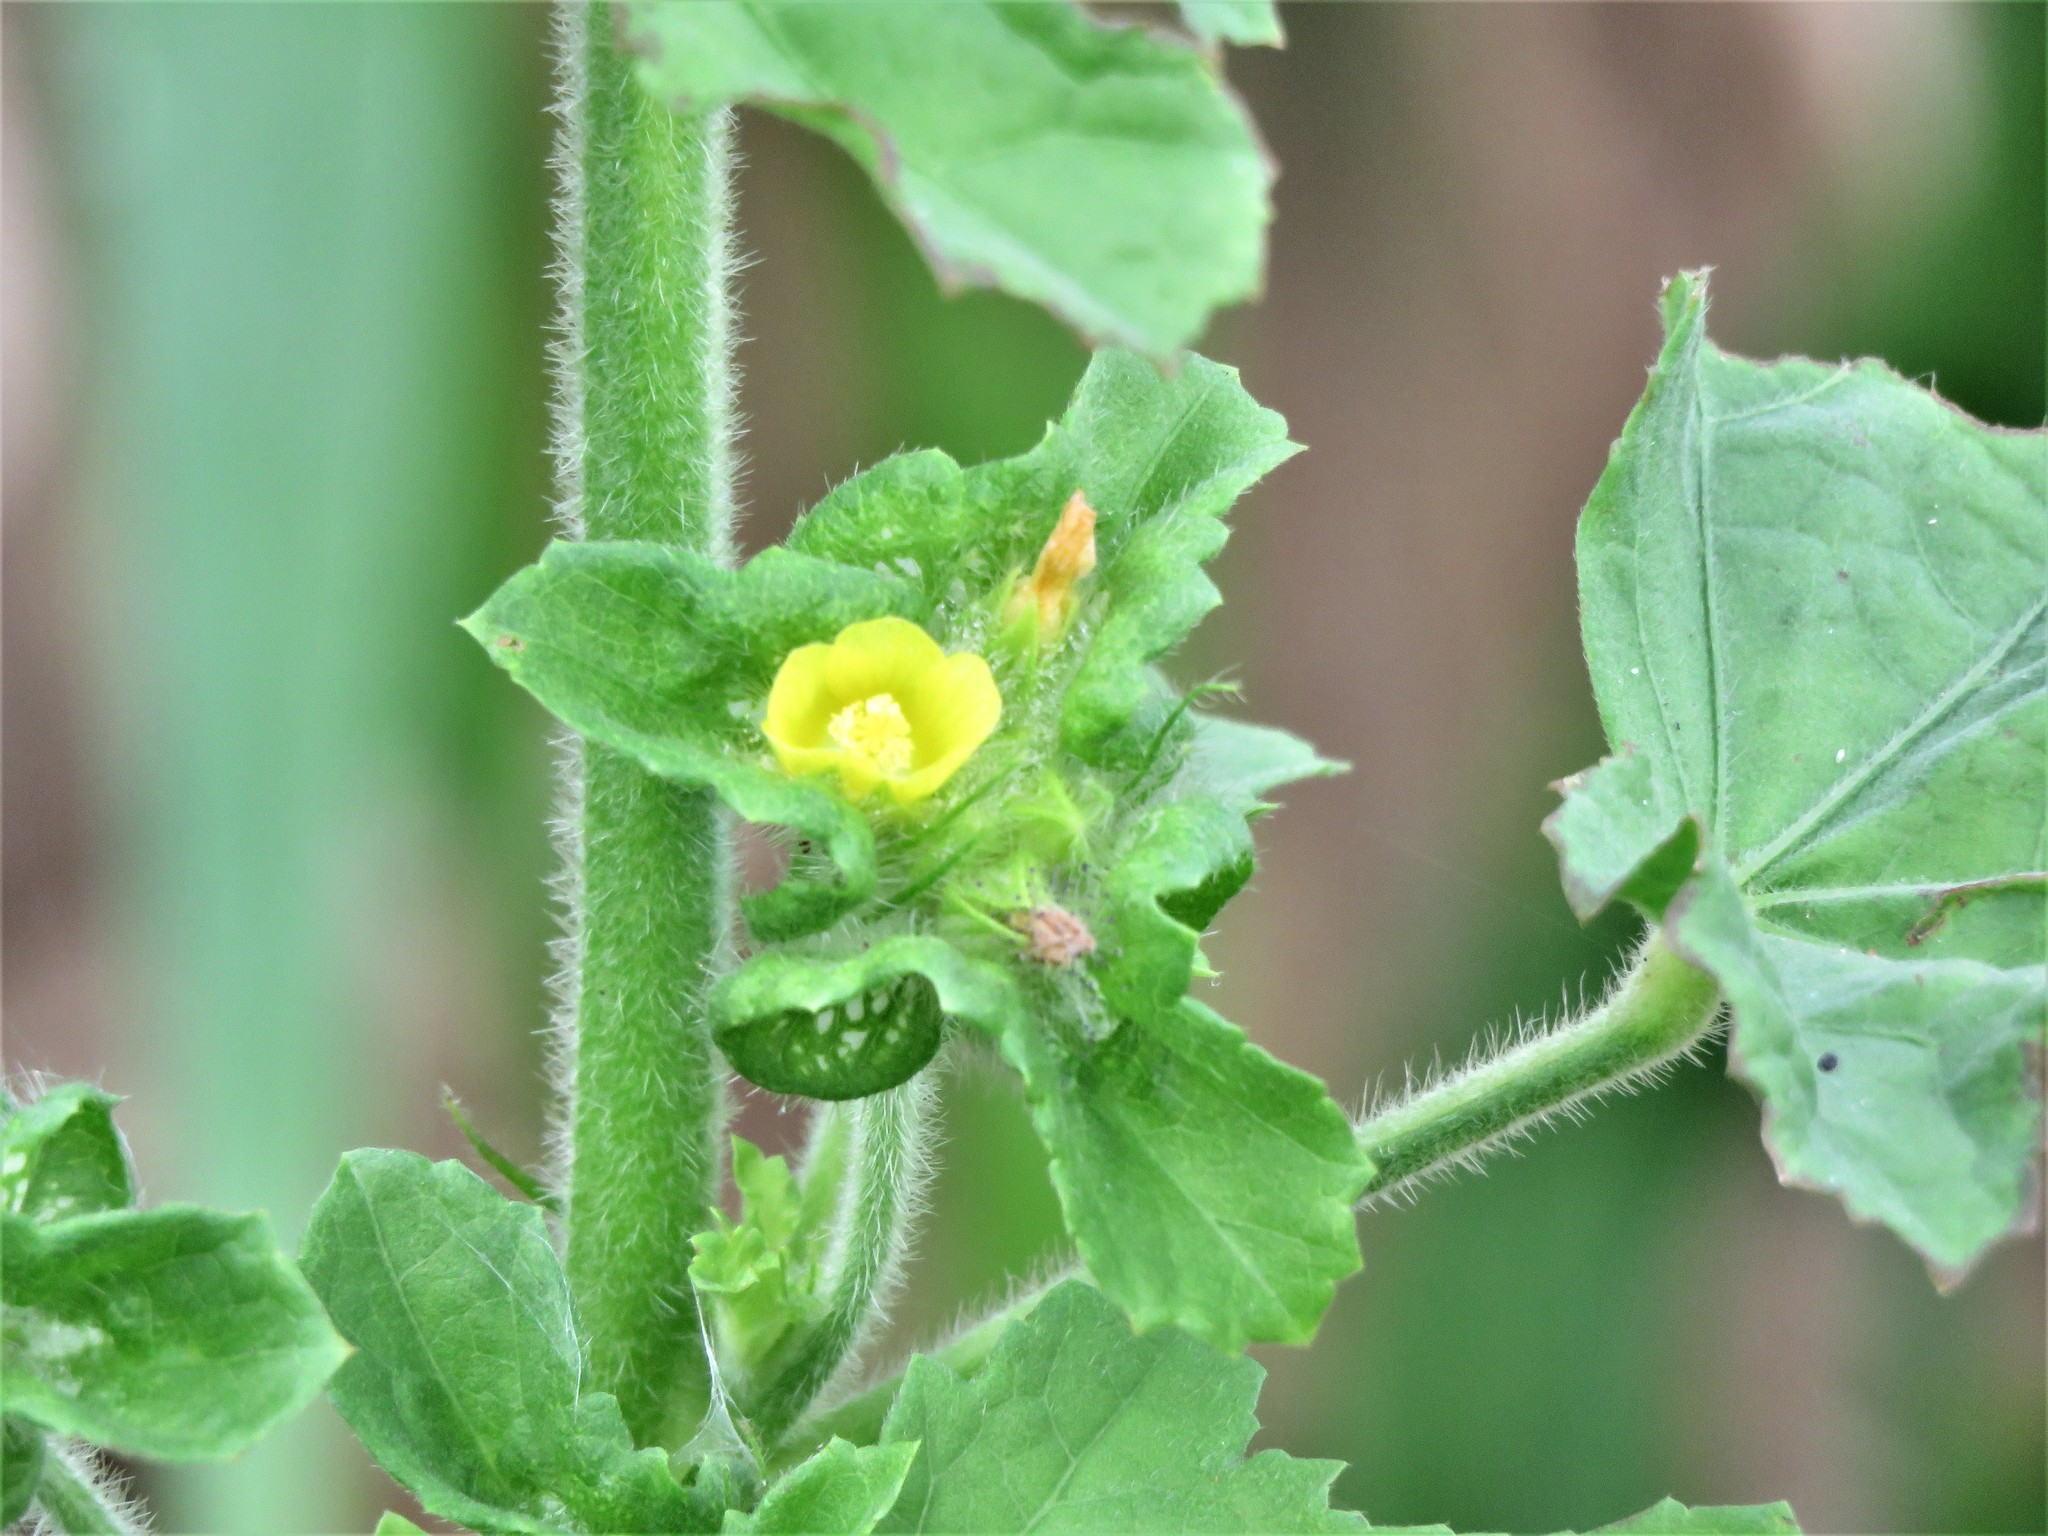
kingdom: Plantae
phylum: Tracheophyta
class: Magnoliopsida
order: Malvales
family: Malvaceae
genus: Malachra
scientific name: Malachra capitata
